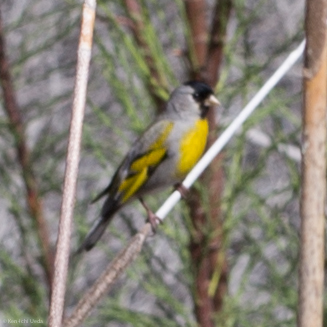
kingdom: Animalia
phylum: Chordata
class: Aves
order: Passeriformes
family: Fringillidae
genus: Spinus
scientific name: Spinus lawrencei
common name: Lawrence's goldfinch
